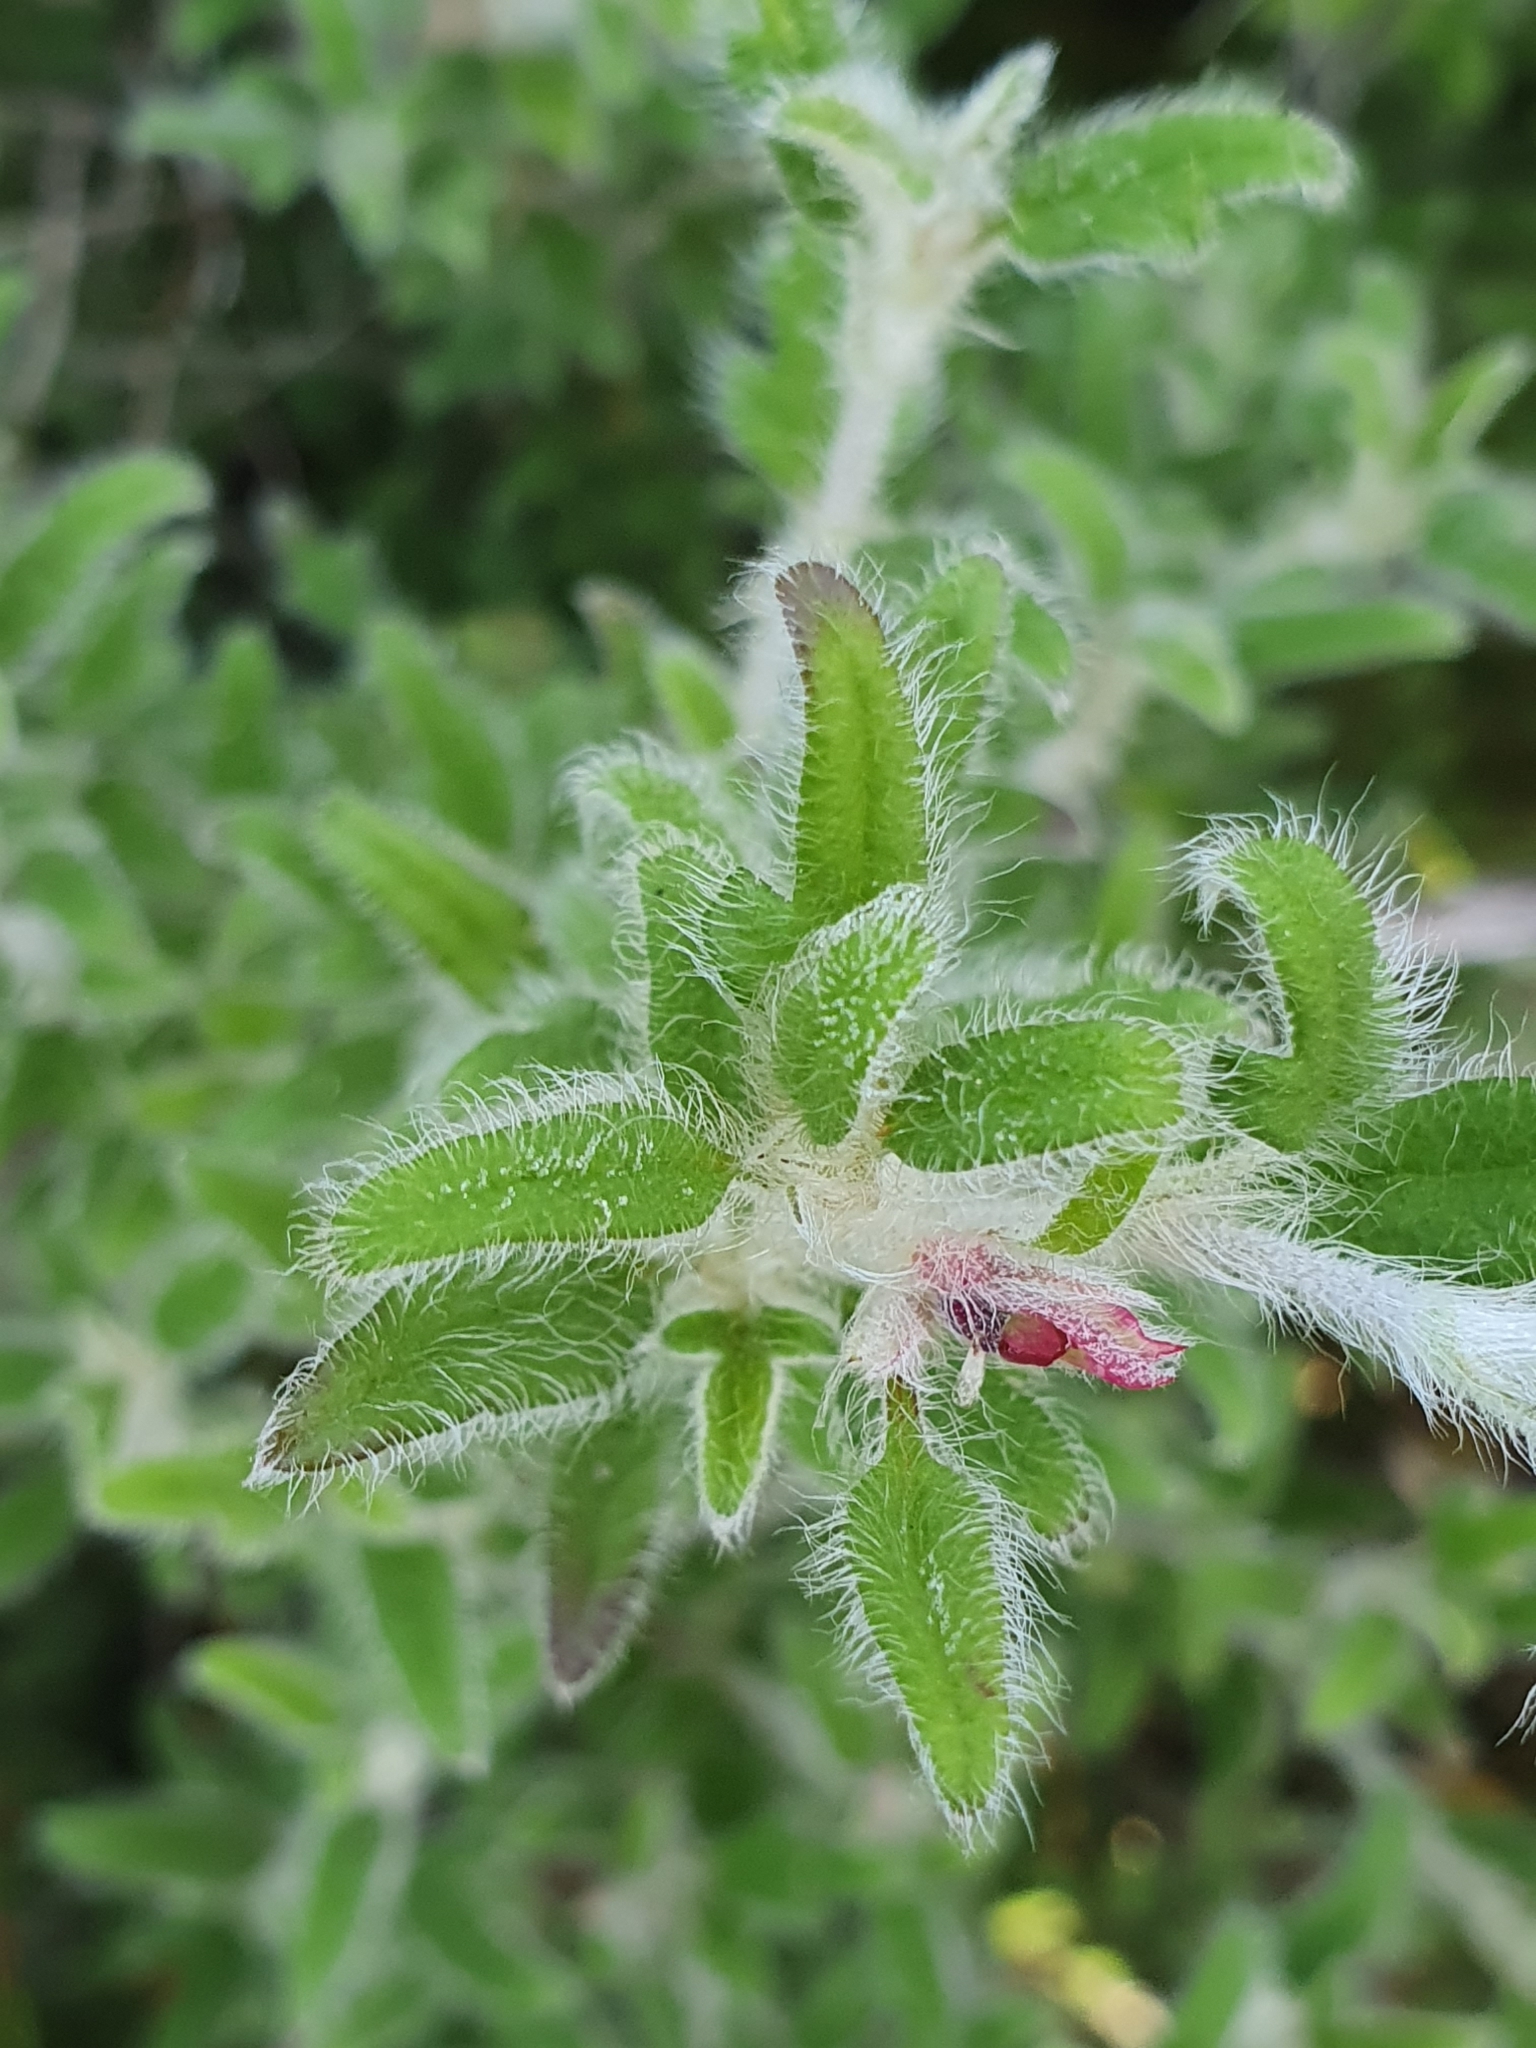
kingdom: Plantae
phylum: Tracheophyta
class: Magnoliopsida
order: Apiales
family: Apiaceae
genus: Xanthosia
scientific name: Xanthosia pilosa
